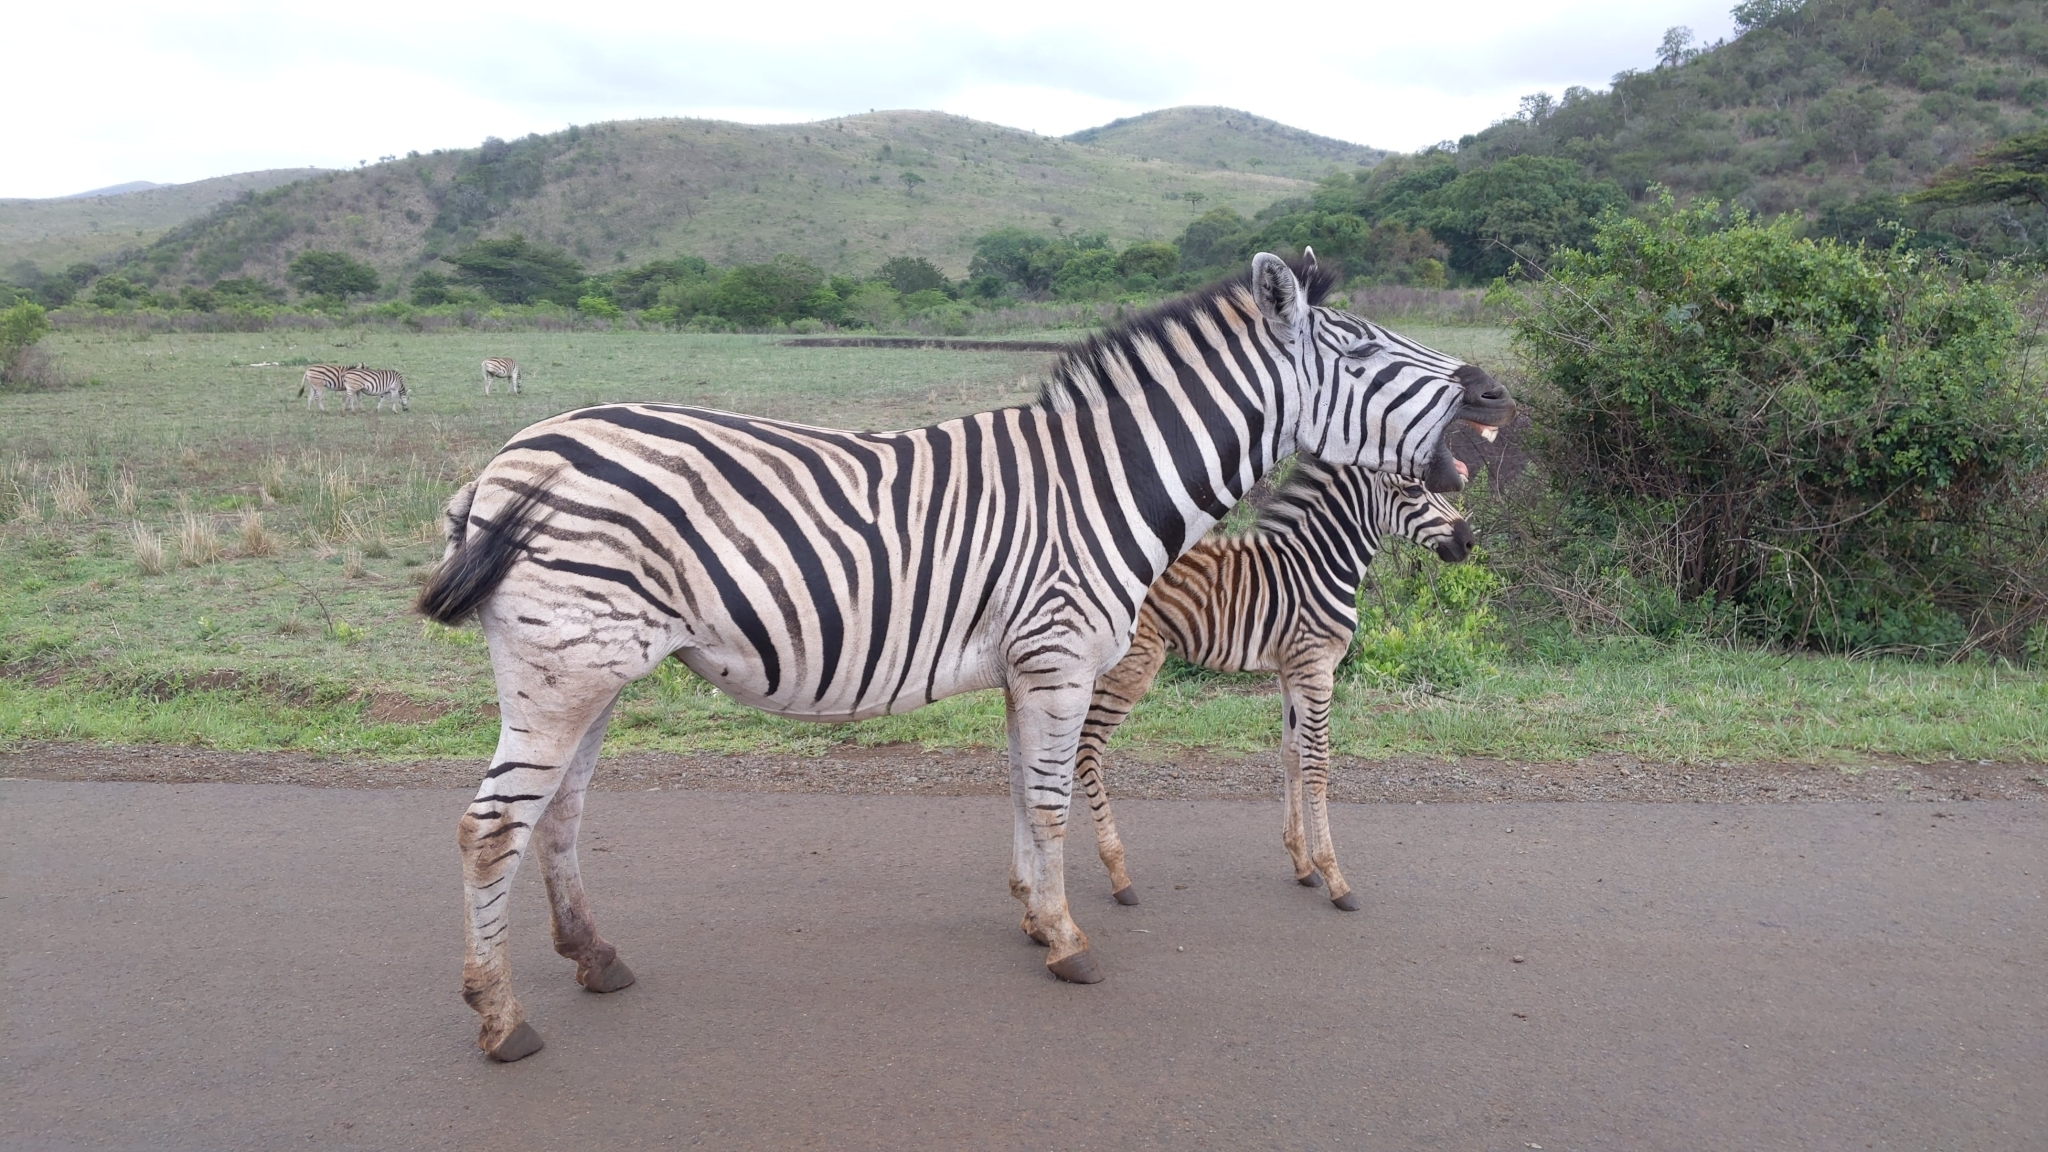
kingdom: Animalia
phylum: Chordata
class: Mammalia
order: Perissodactyla
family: Equidae
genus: Equus
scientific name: Equus quagga
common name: Plains zebra
